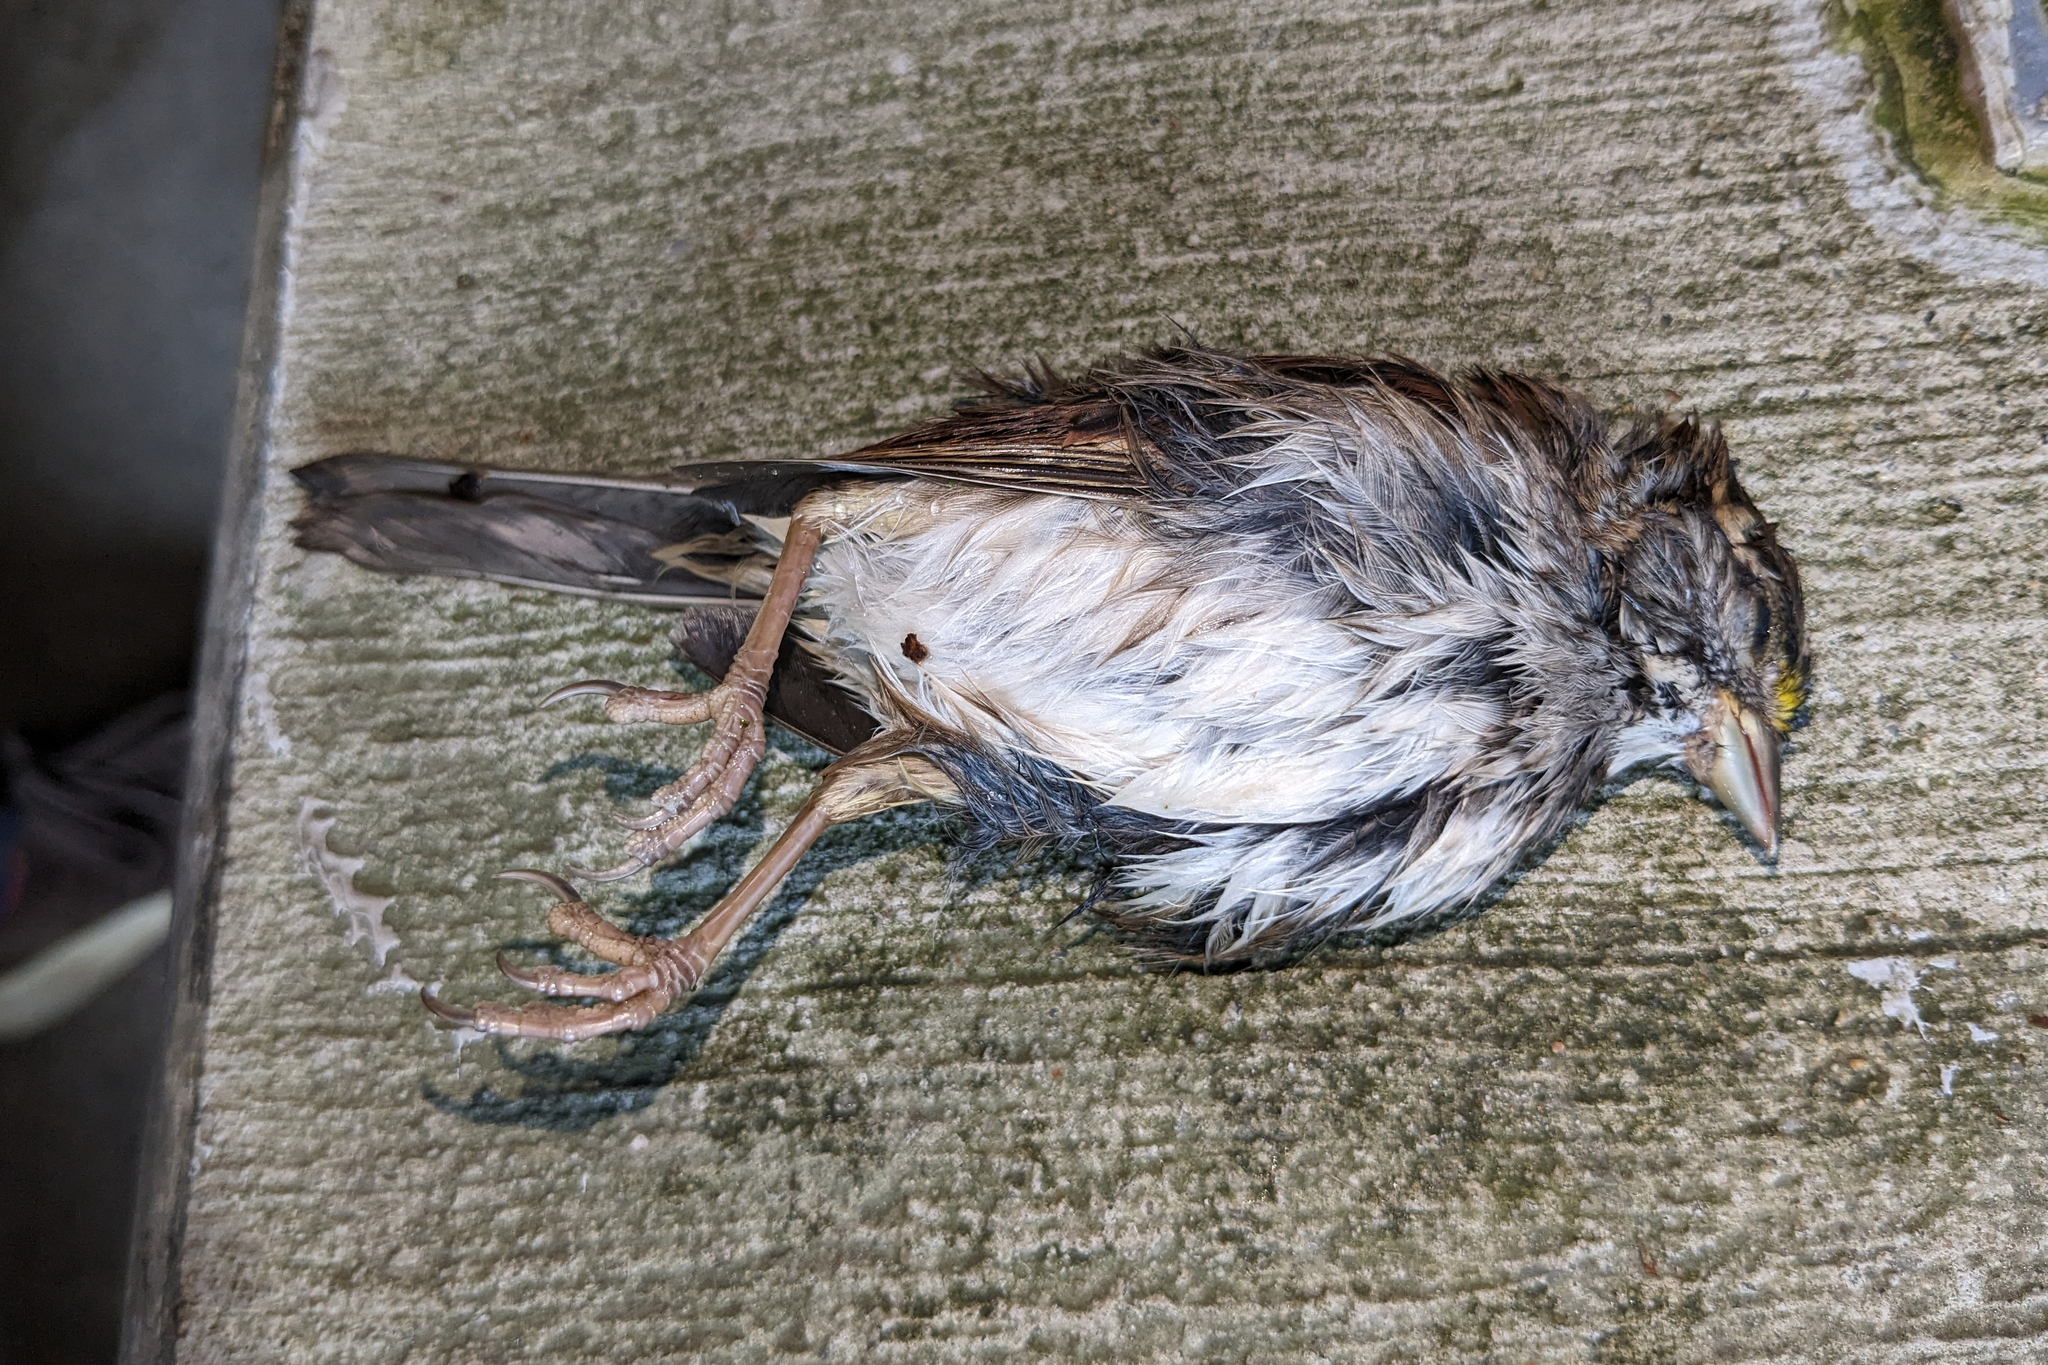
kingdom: Animalia
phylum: Chordata
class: Aves
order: Passeriformes
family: Passerellidae
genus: Zonotrichia
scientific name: Zonotrichia albicollis
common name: White-throated sparrow
